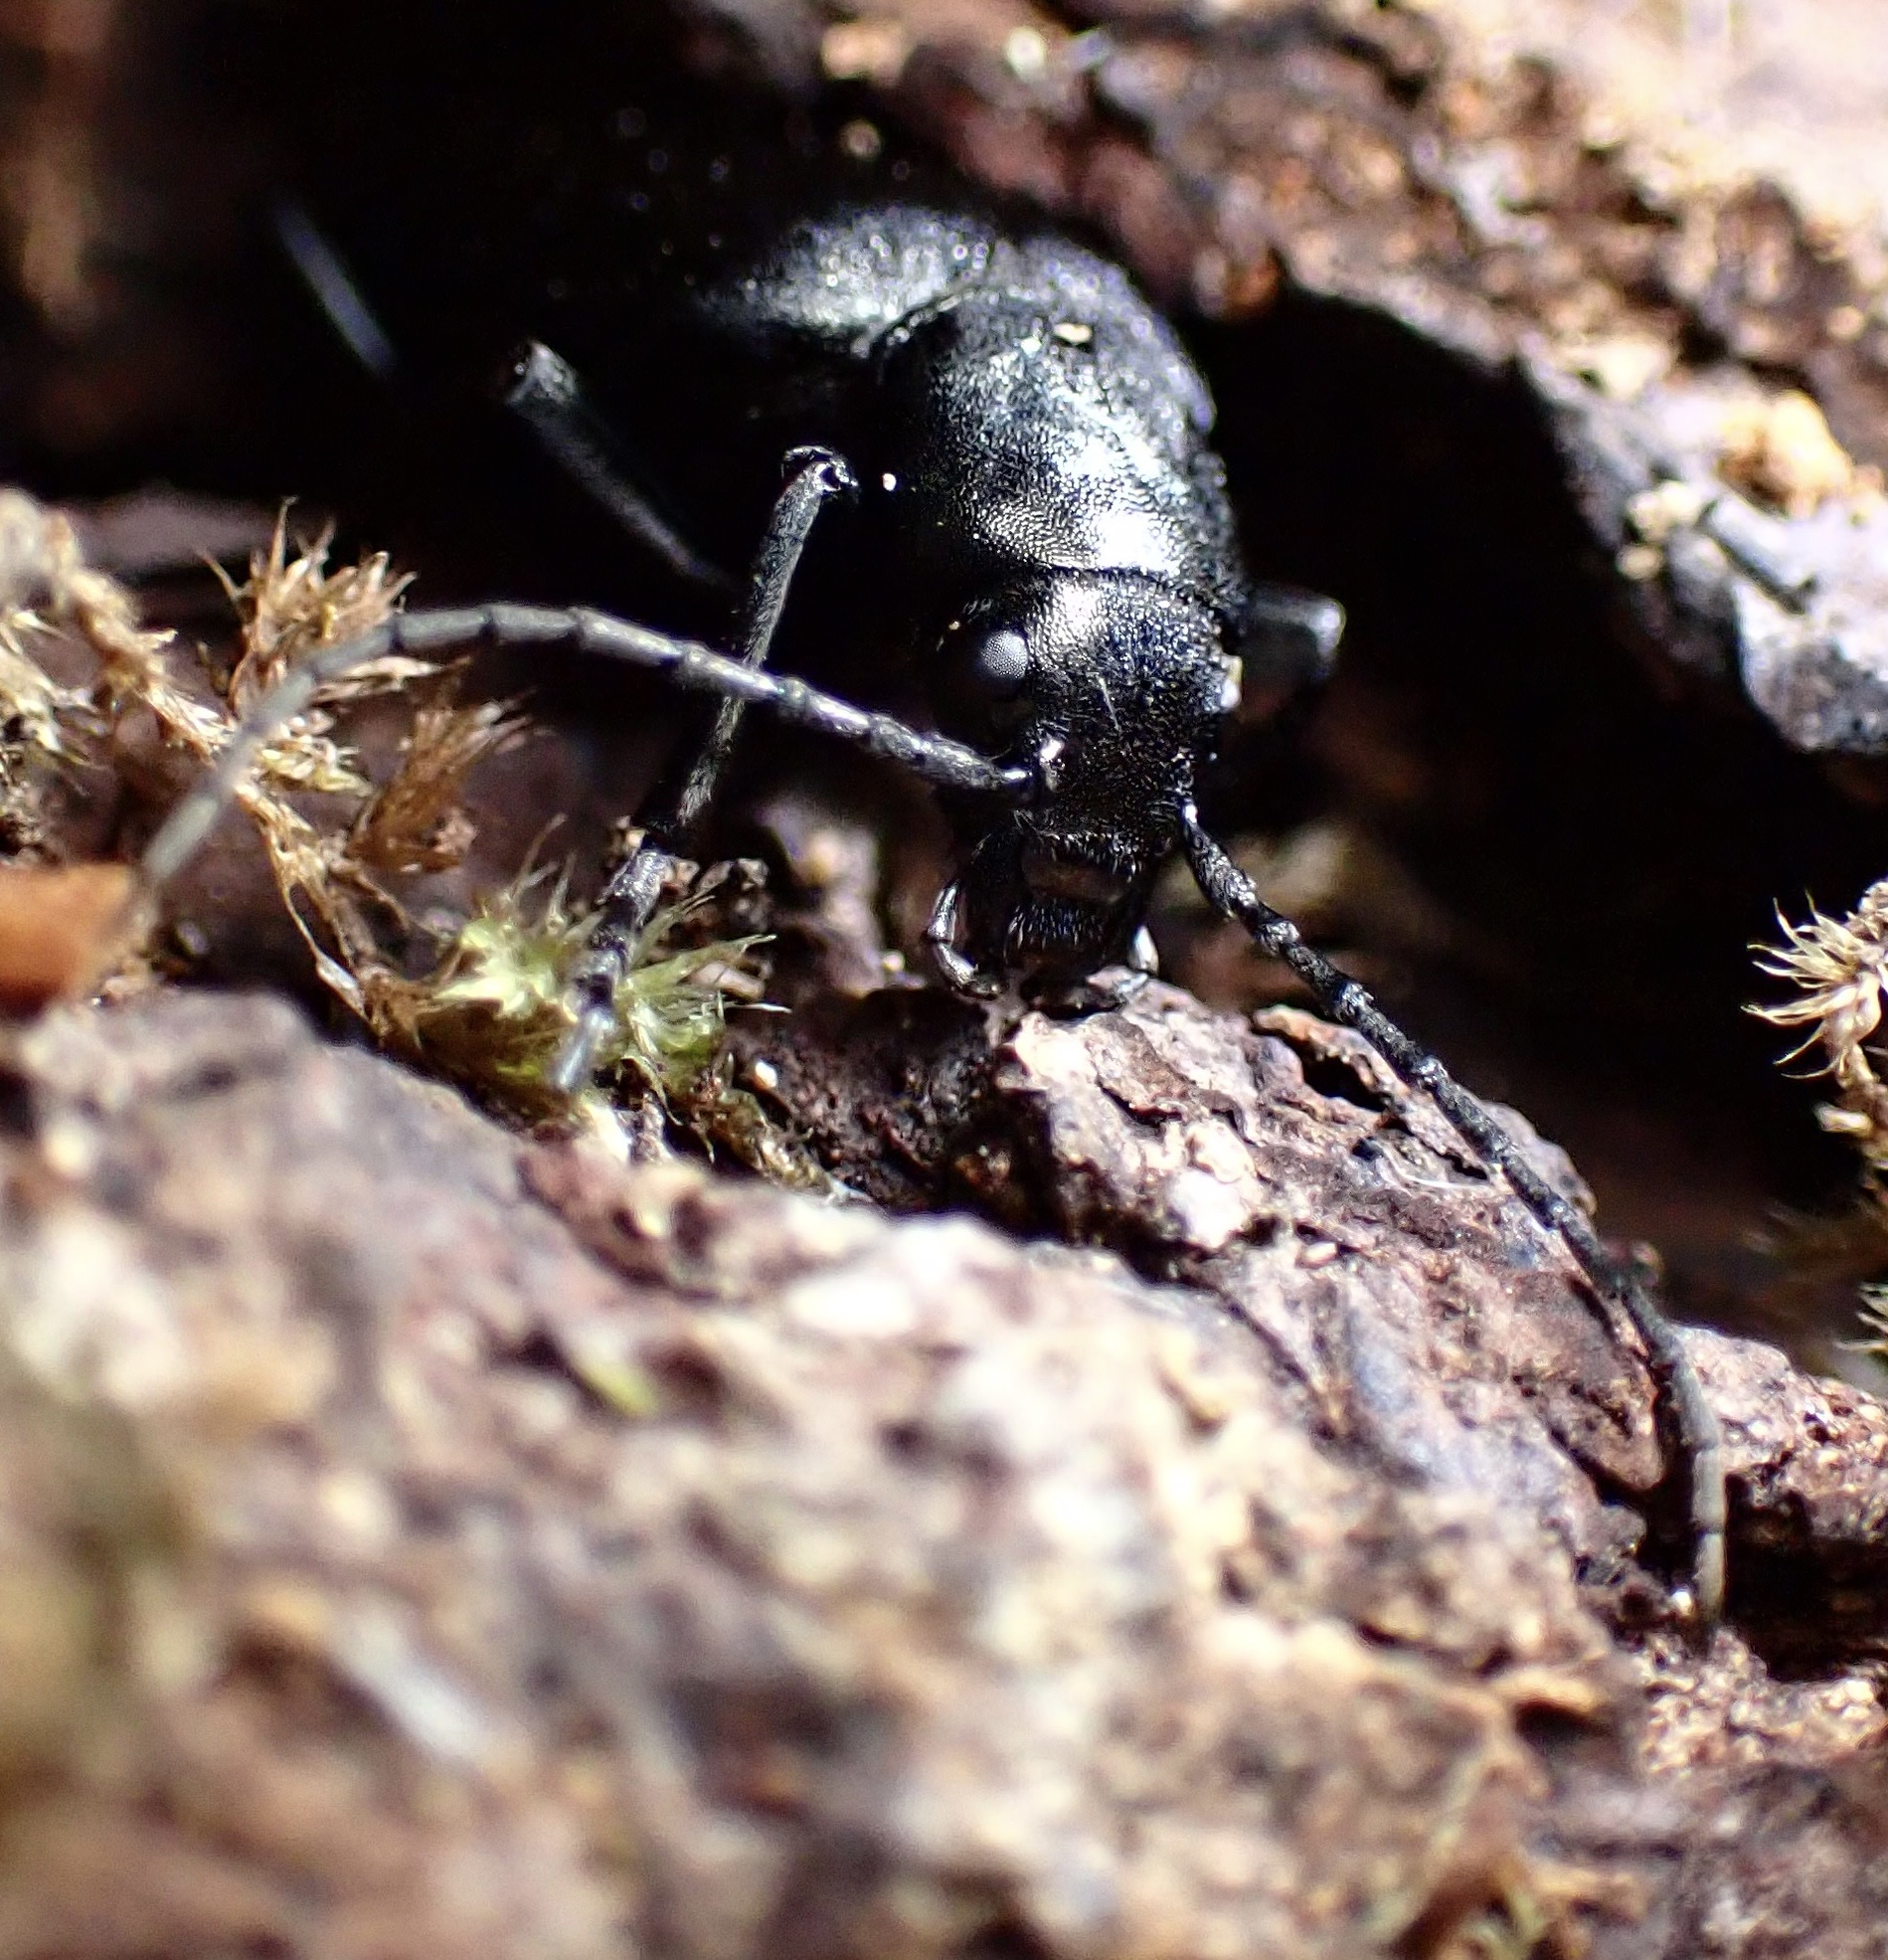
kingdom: Animalia
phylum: Arthropoda
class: Insecta
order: Coleoptera
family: Oedemeridae
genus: Ditylus
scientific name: Ditylus quadricollis
